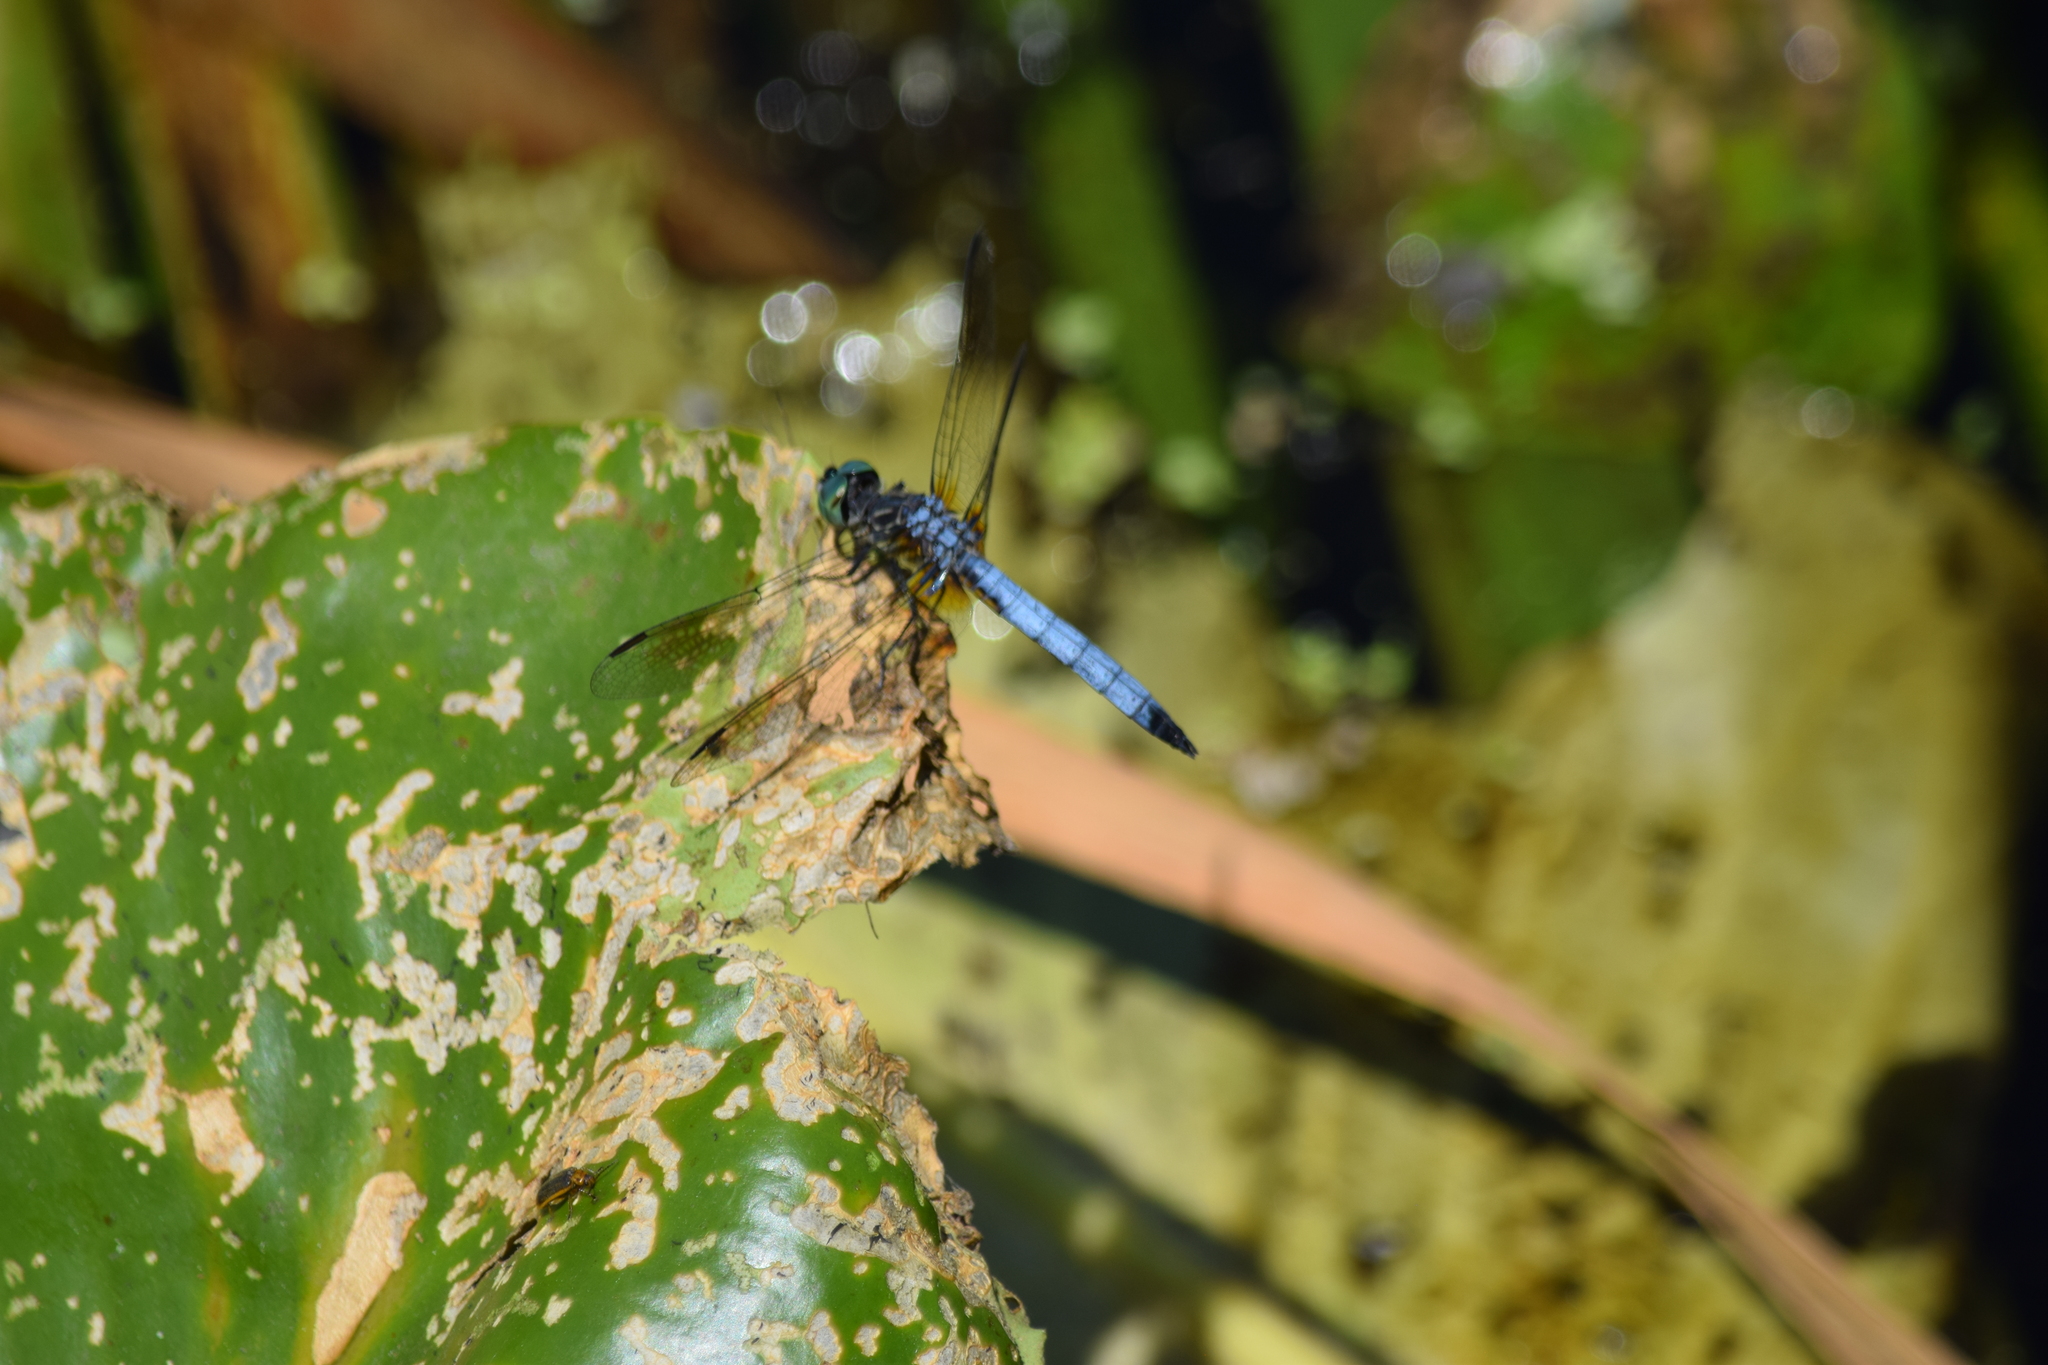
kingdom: Animalia
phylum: Arthropoda
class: Insecta
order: Odonata
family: Libellulidae
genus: Pachydiplax
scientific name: Pachydiplax longipennis
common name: Blue dasher
